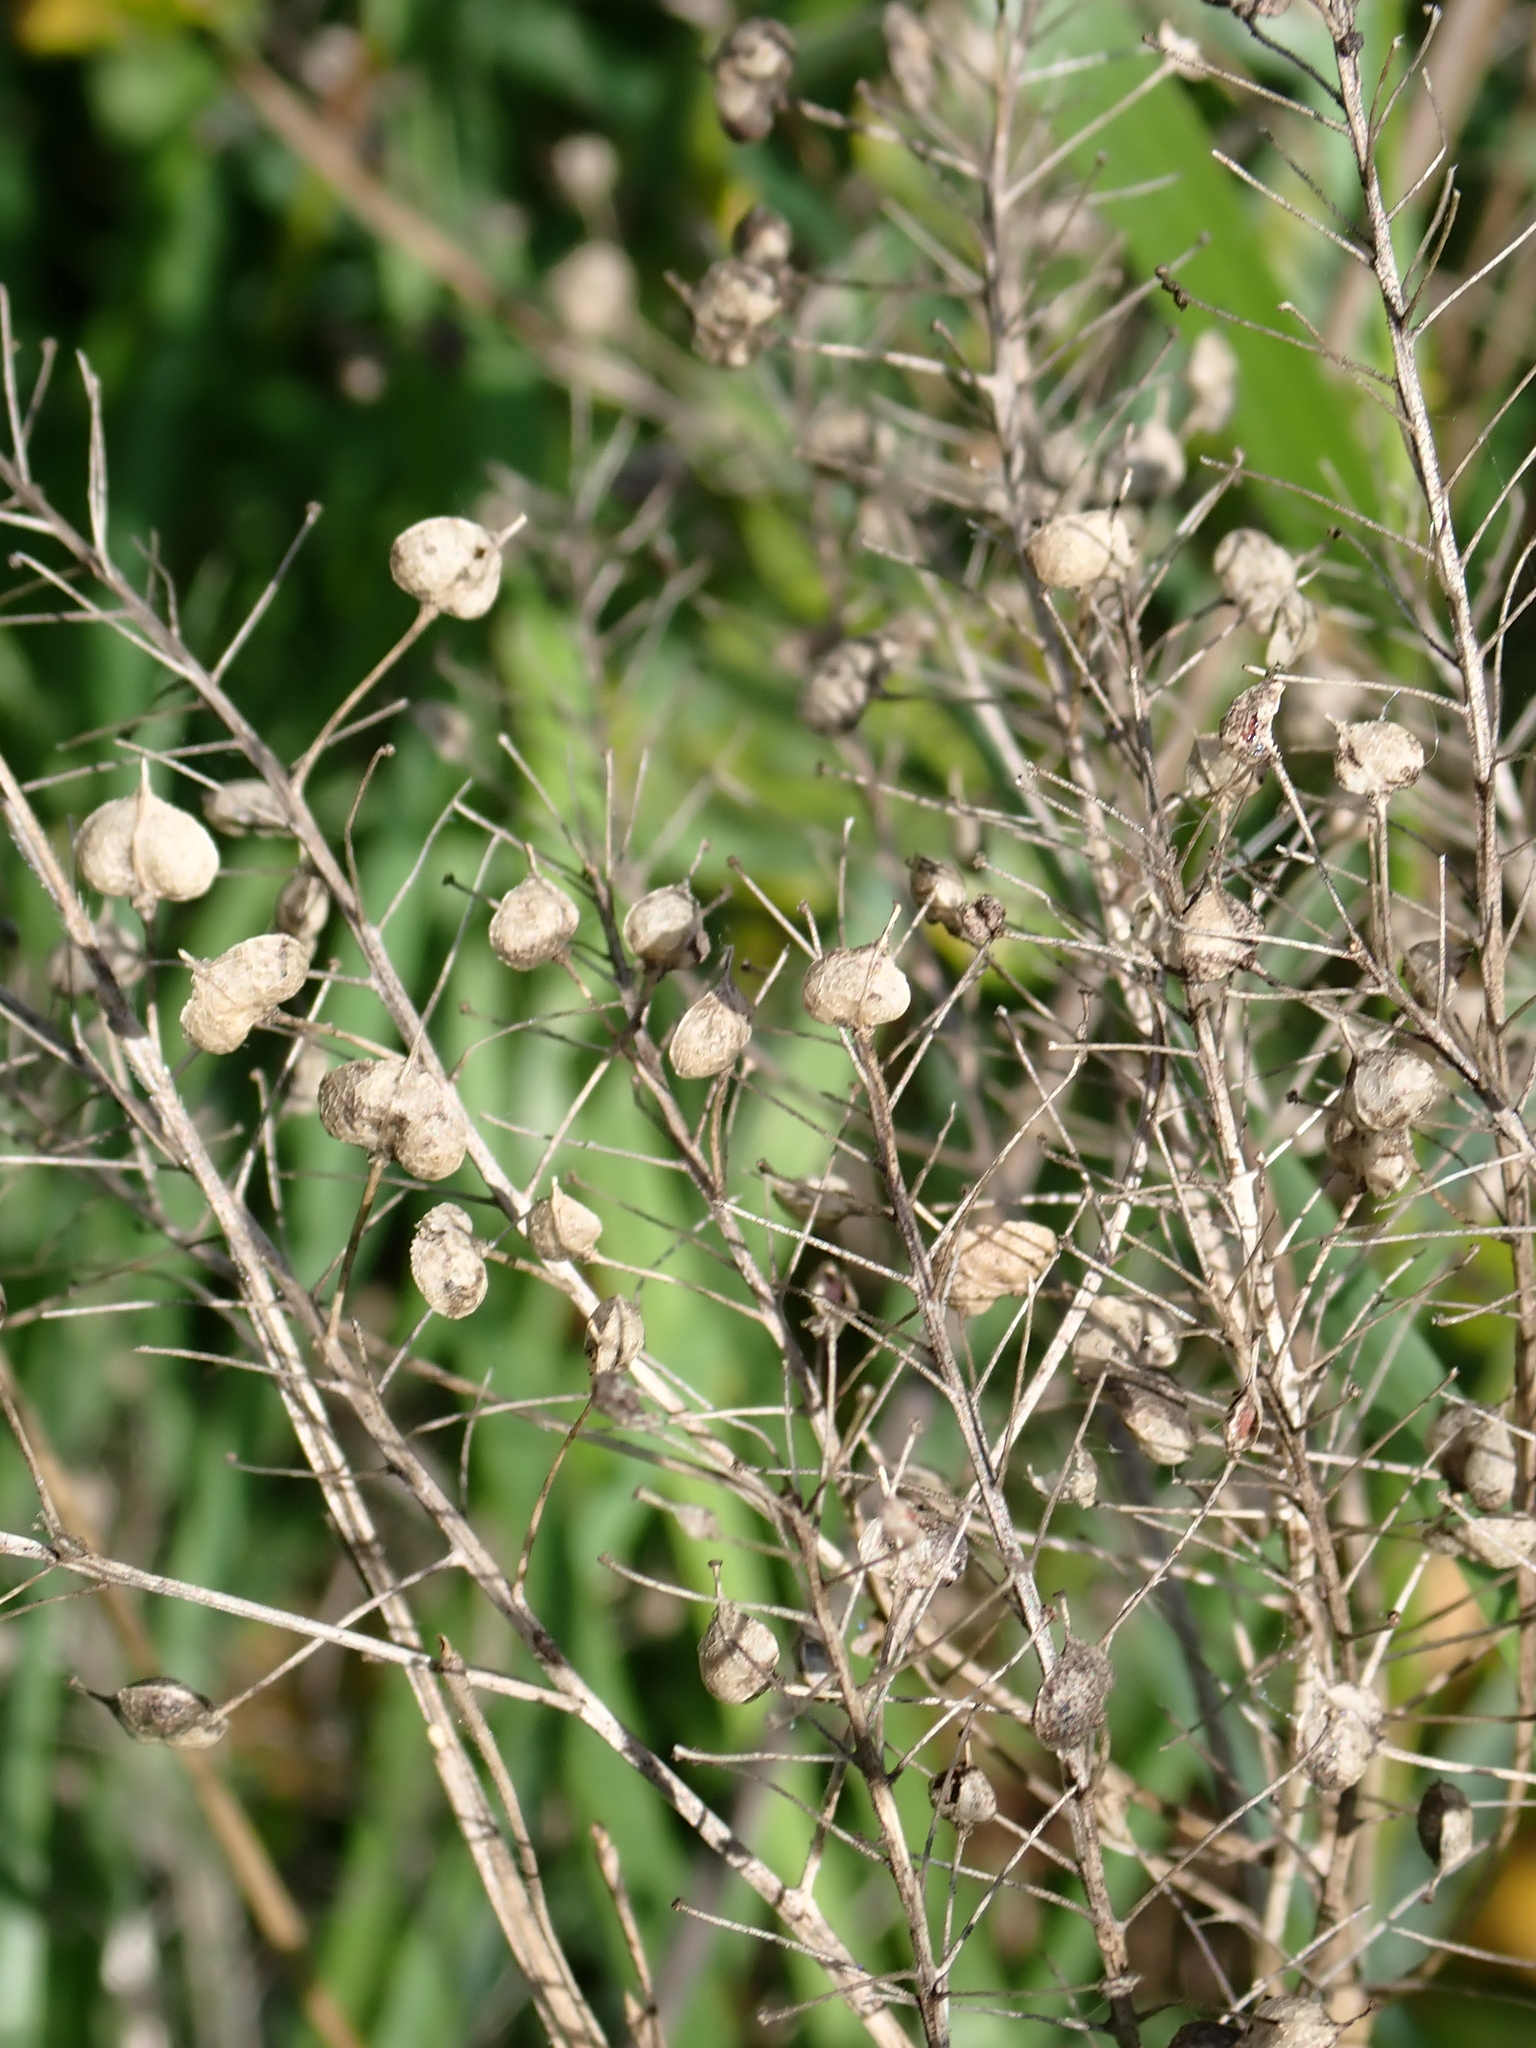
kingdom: Plantae
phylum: Tracheophyta
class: Magnoliopsida
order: Brassicales
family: Brassicaceae
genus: Lepidium
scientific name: Lepidium draba
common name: Hoary cress
